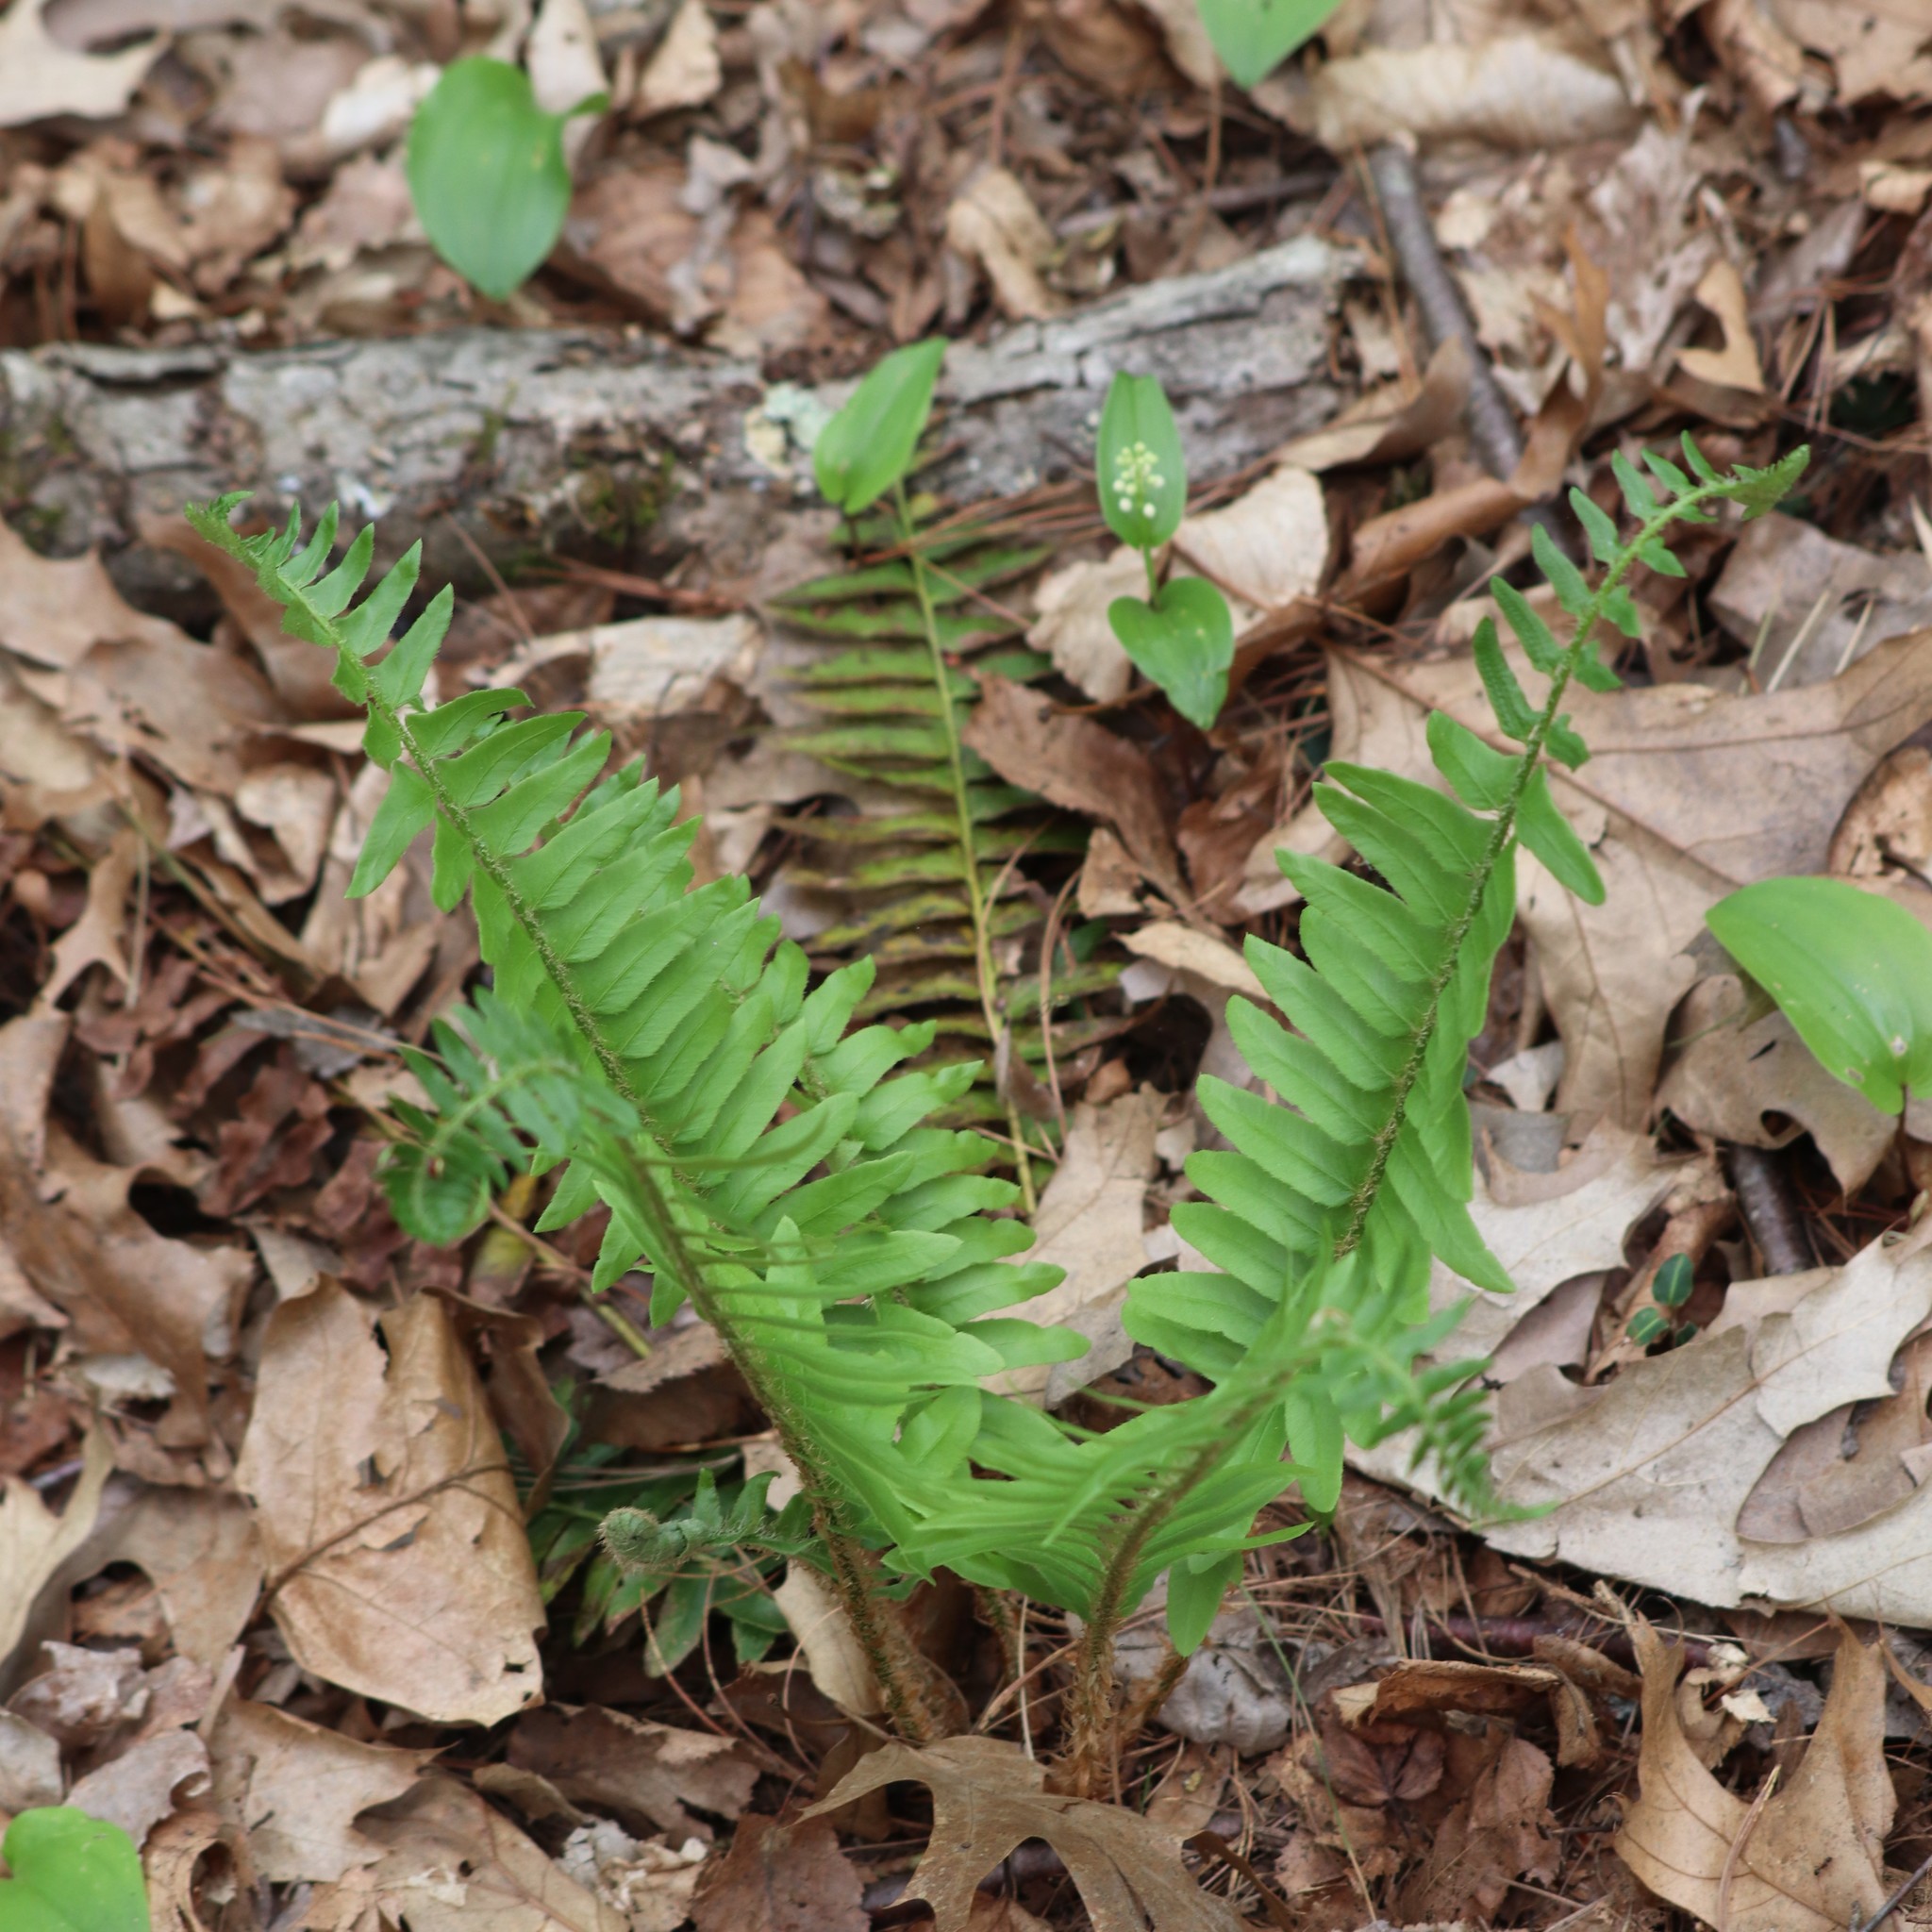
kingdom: Plantae
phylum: Tracheophyta
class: Polypodiopsida
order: Polypodiales
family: Dryopteridaceae
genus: Polystichum
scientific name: Polystichum acrostichoides
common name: Christmas fern
